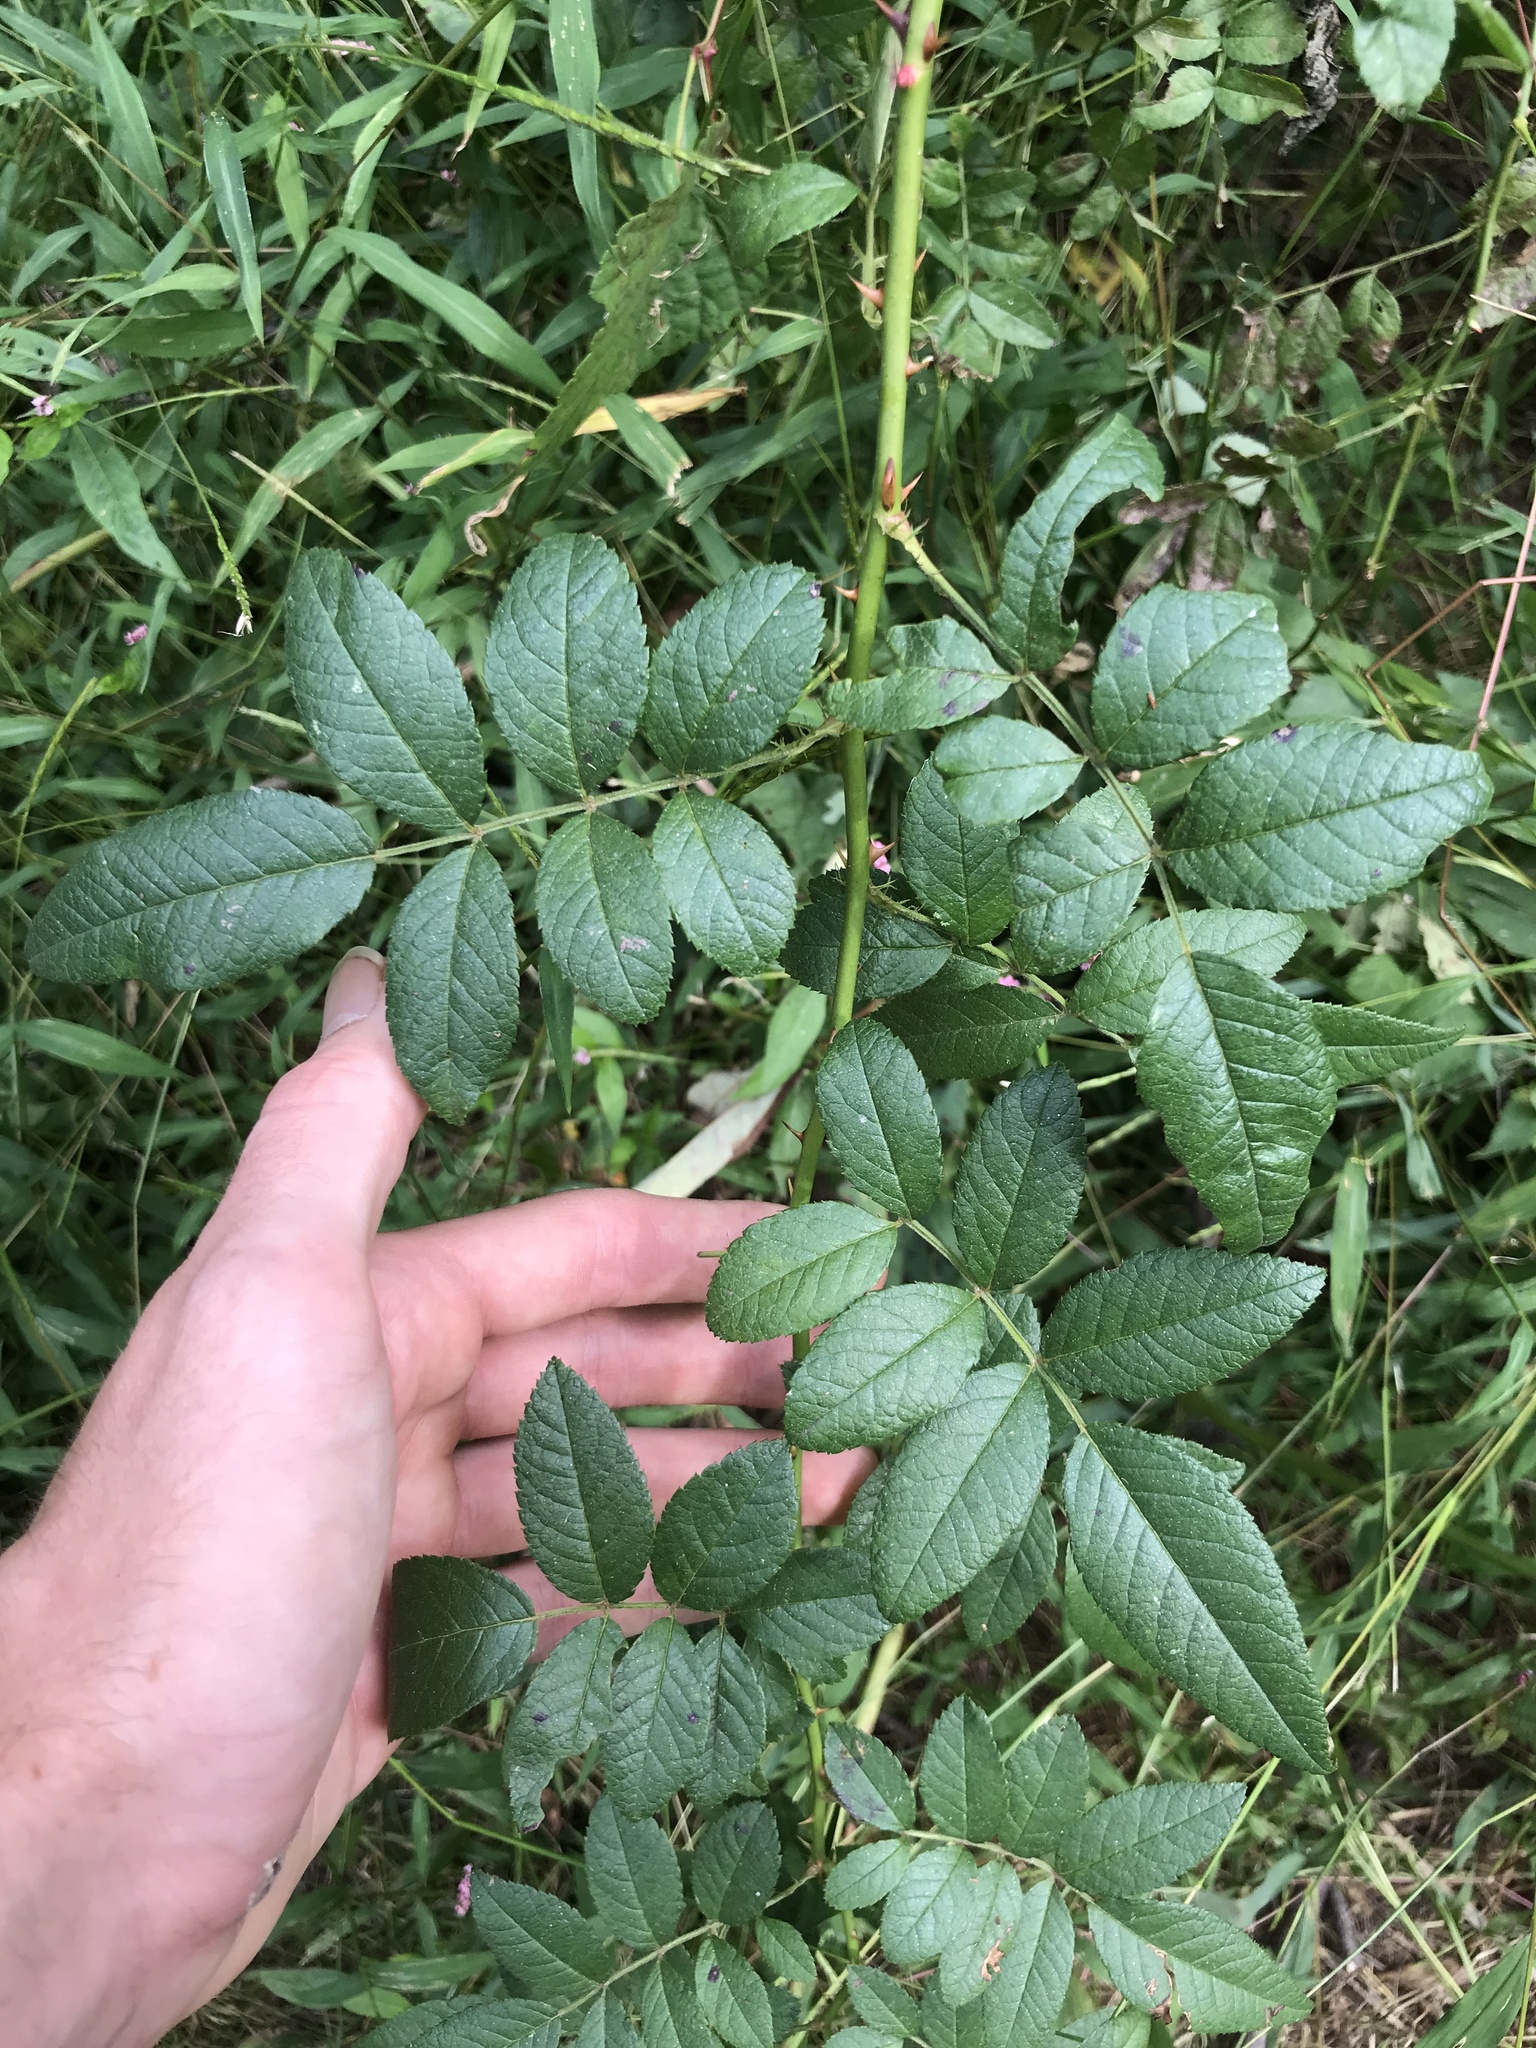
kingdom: Plantae
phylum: Tracheophyta
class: Magnoliopsida
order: Rosales
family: Rosaceae
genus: Rosa
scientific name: Rosa multiflora
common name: Multiflora rose
